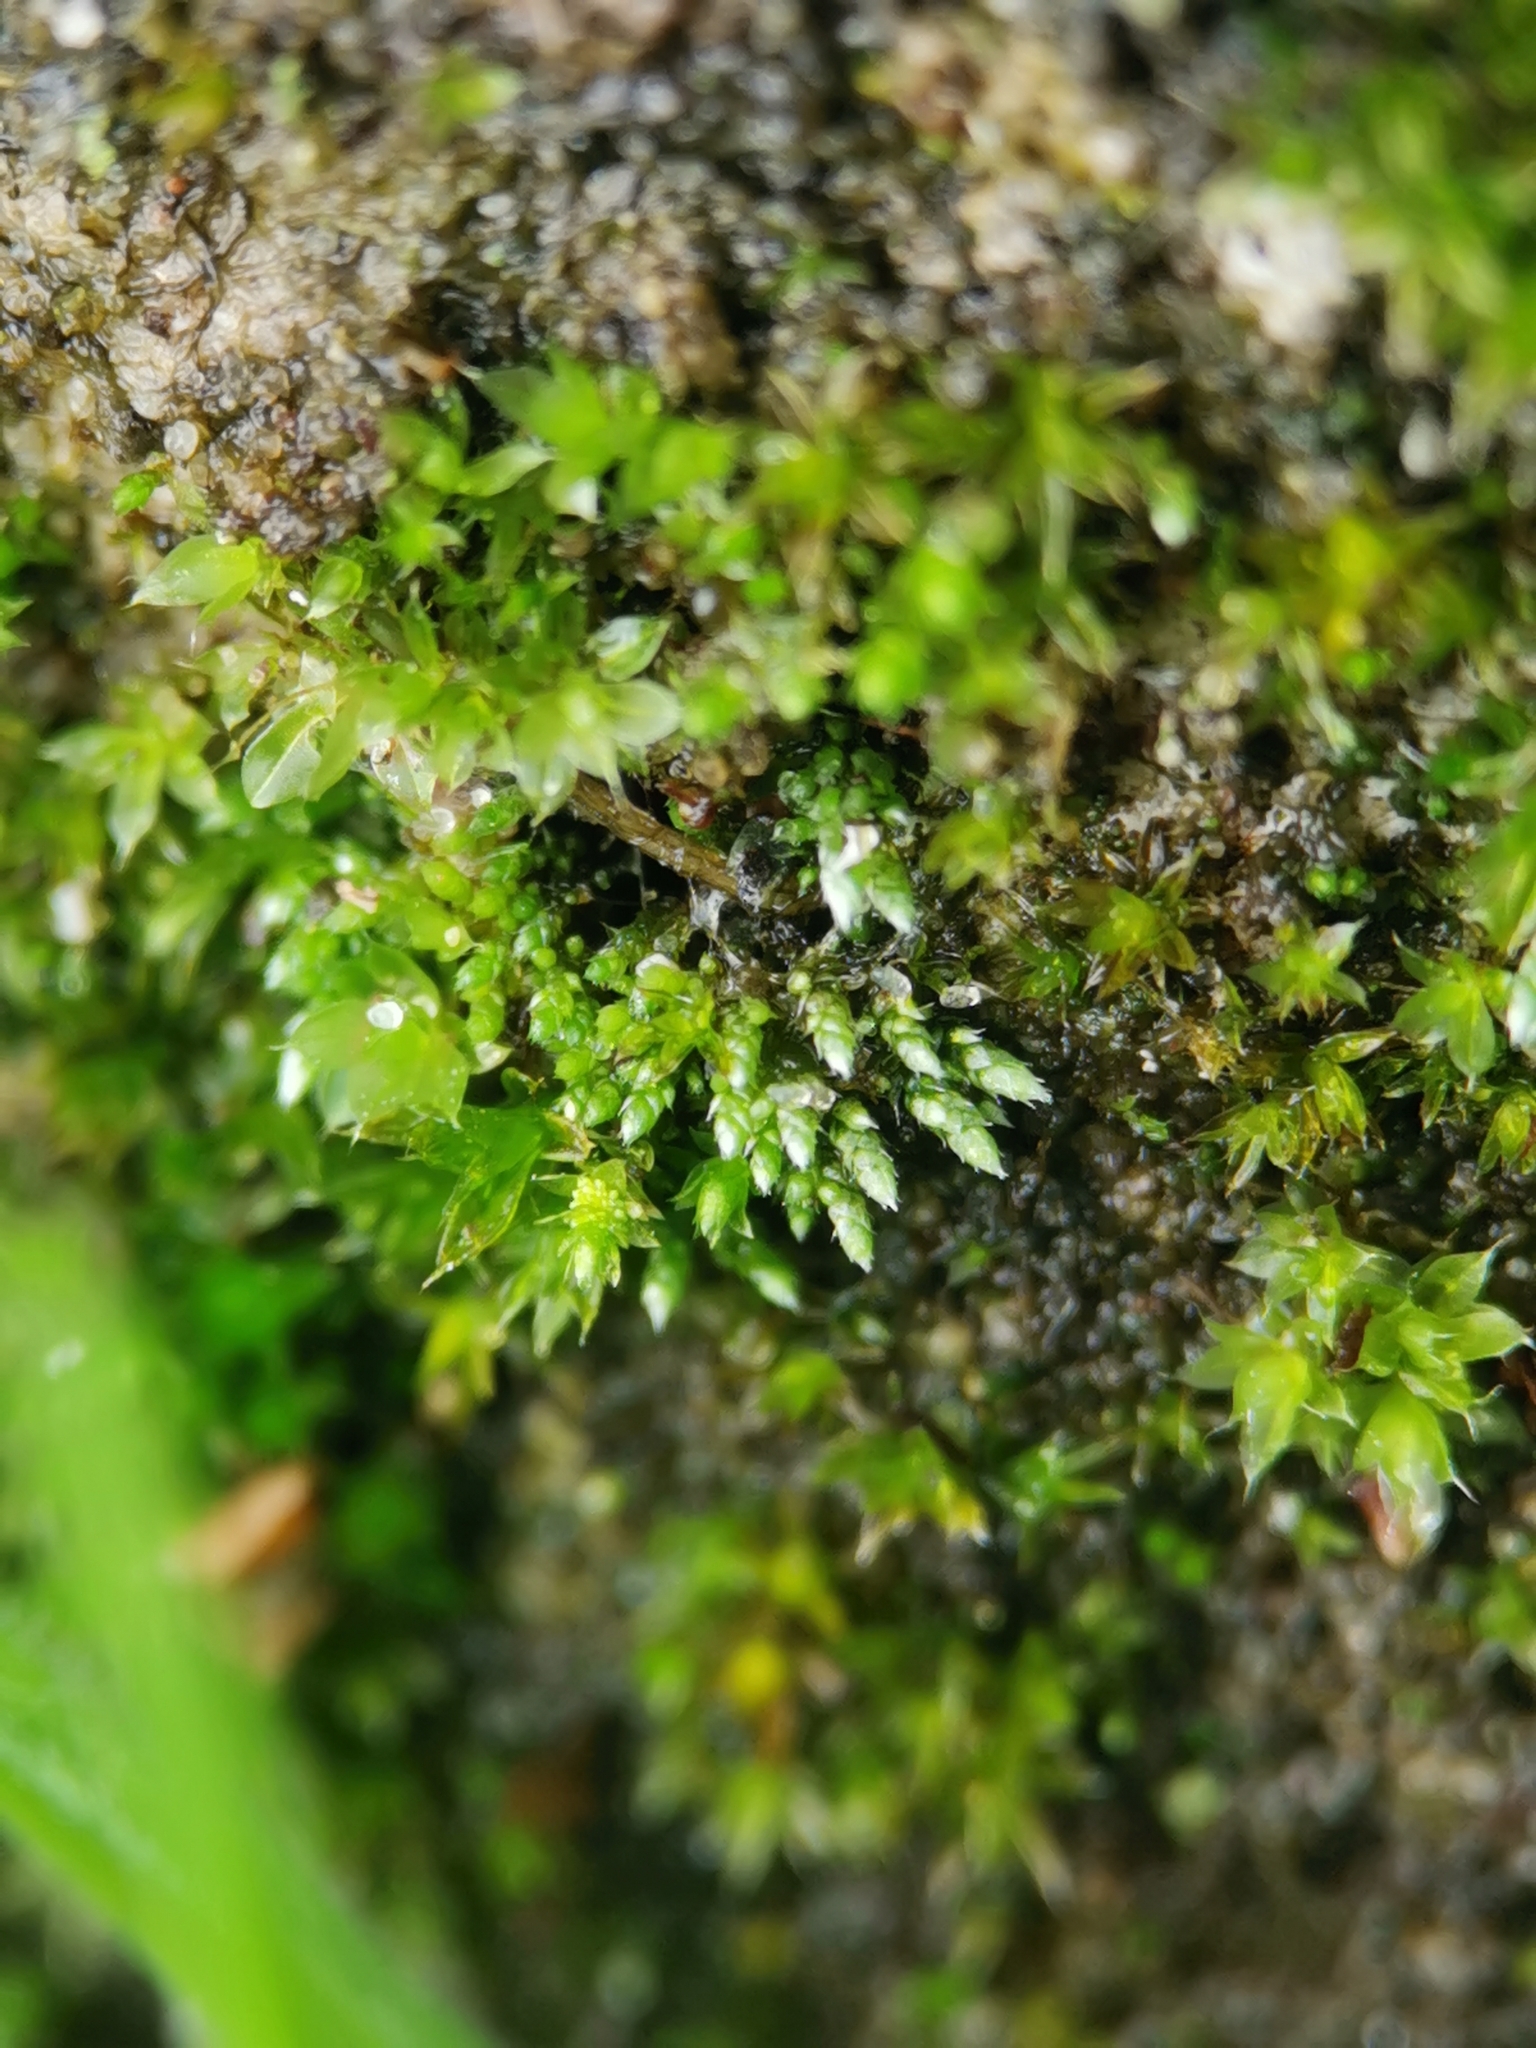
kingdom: Plantae
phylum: Bryophyta
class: Bryopsida
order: Bryales
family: Bryaceae
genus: Bryum
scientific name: Bryum argenteum
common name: Silver-moss
